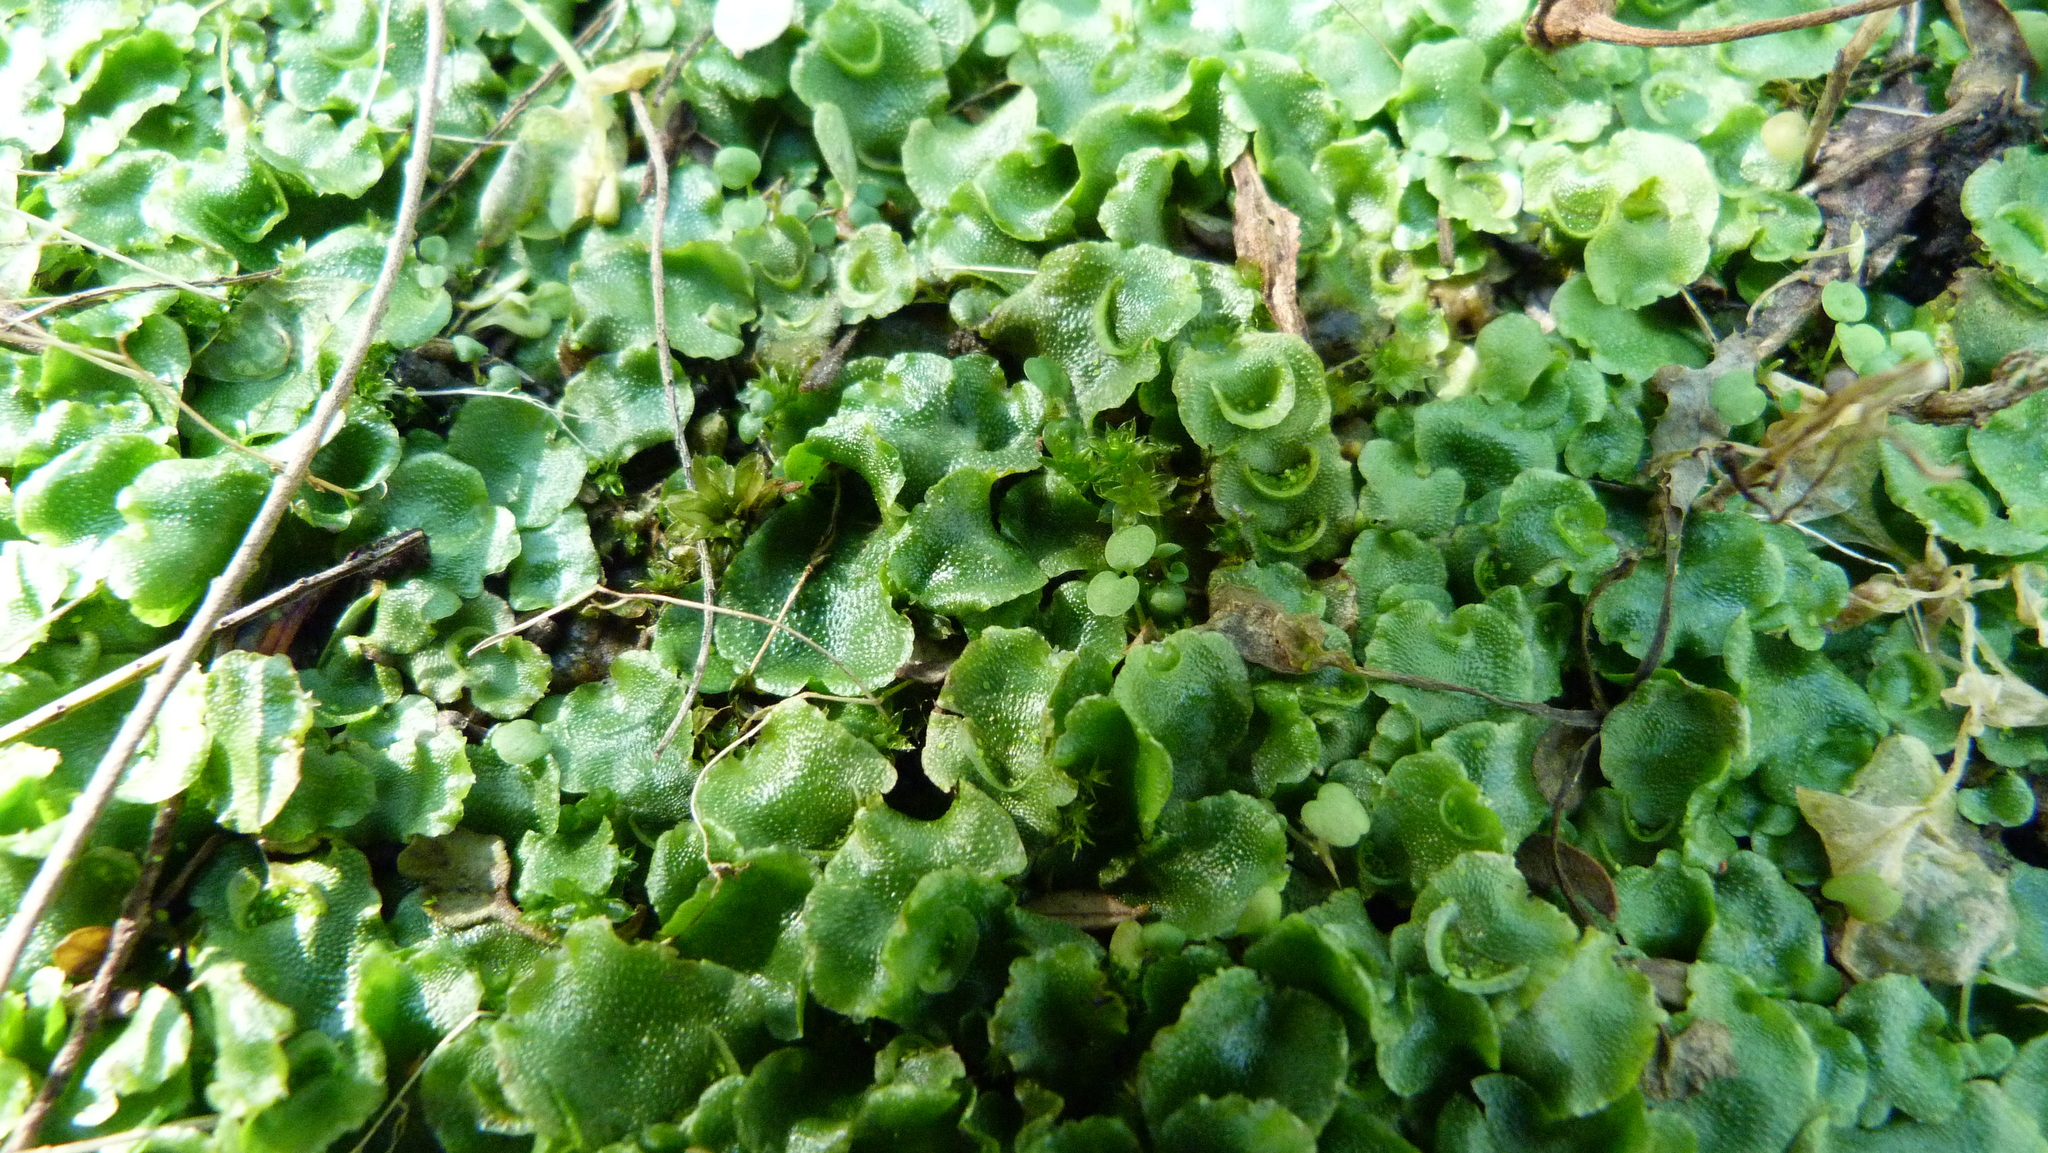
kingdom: Plantae
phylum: Marchantiophyta
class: Marchantiopsida
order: Lunulariales
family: Lunulariaceae
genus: Lunularia
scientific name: Lunularia cruciata
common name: Crescent-cup liverwort
